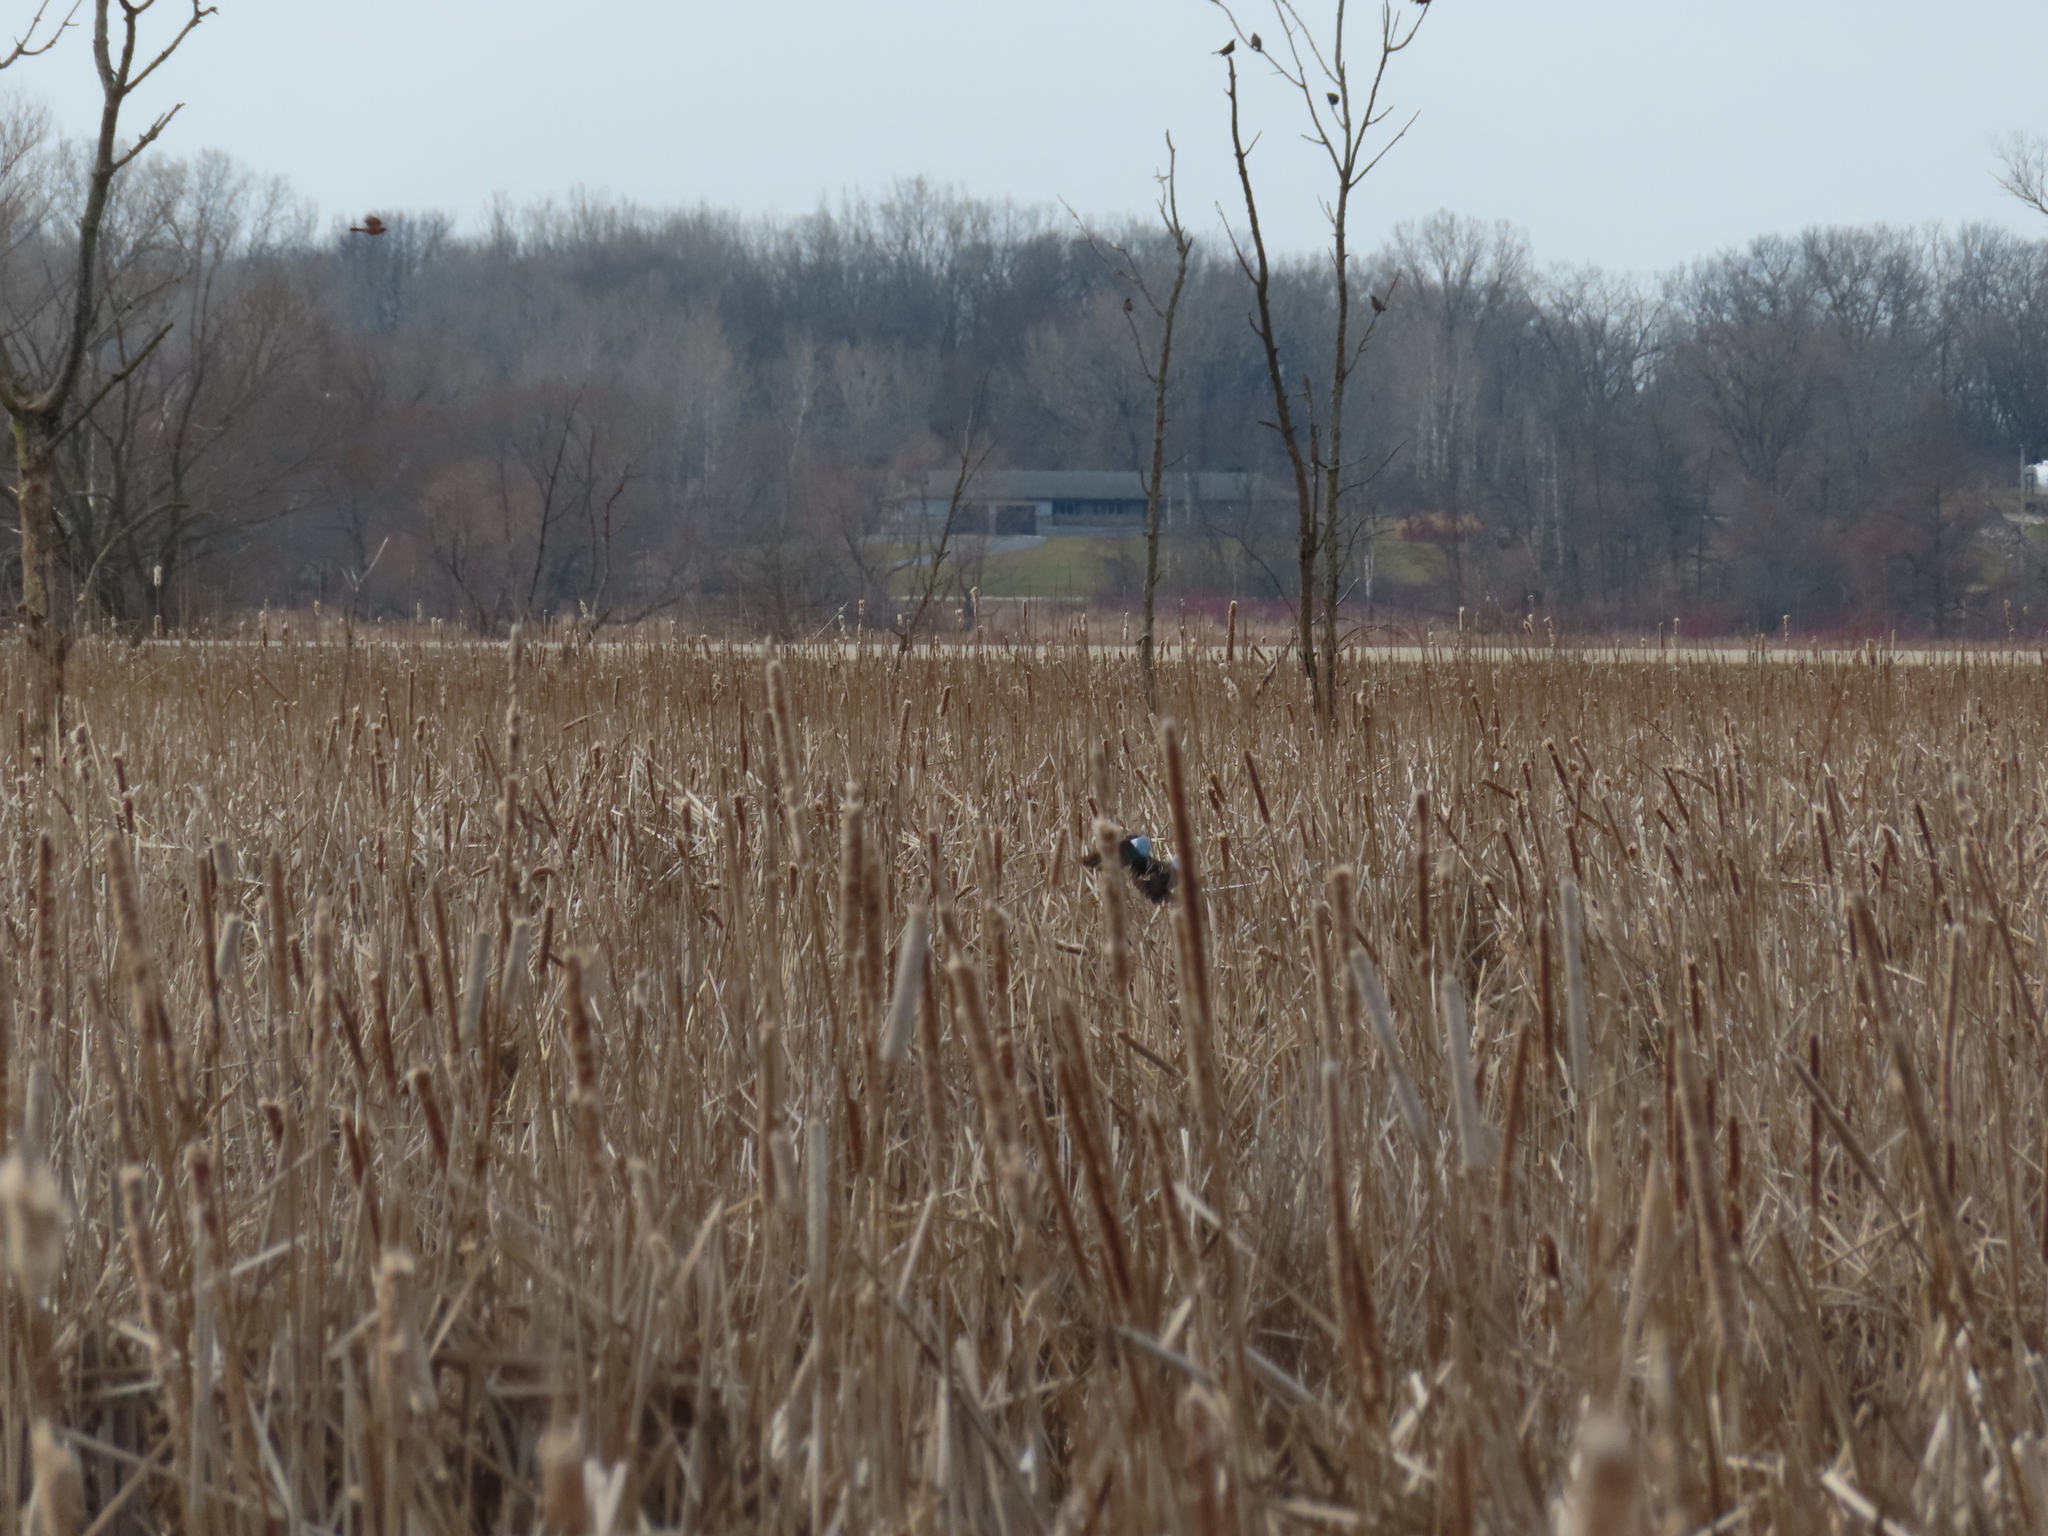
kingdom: Animalia
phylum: Chordata
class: Aves
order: Anseriformes
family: Anatidae
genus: Spatula
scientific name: Spatula discors
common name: Blue-winged teal
